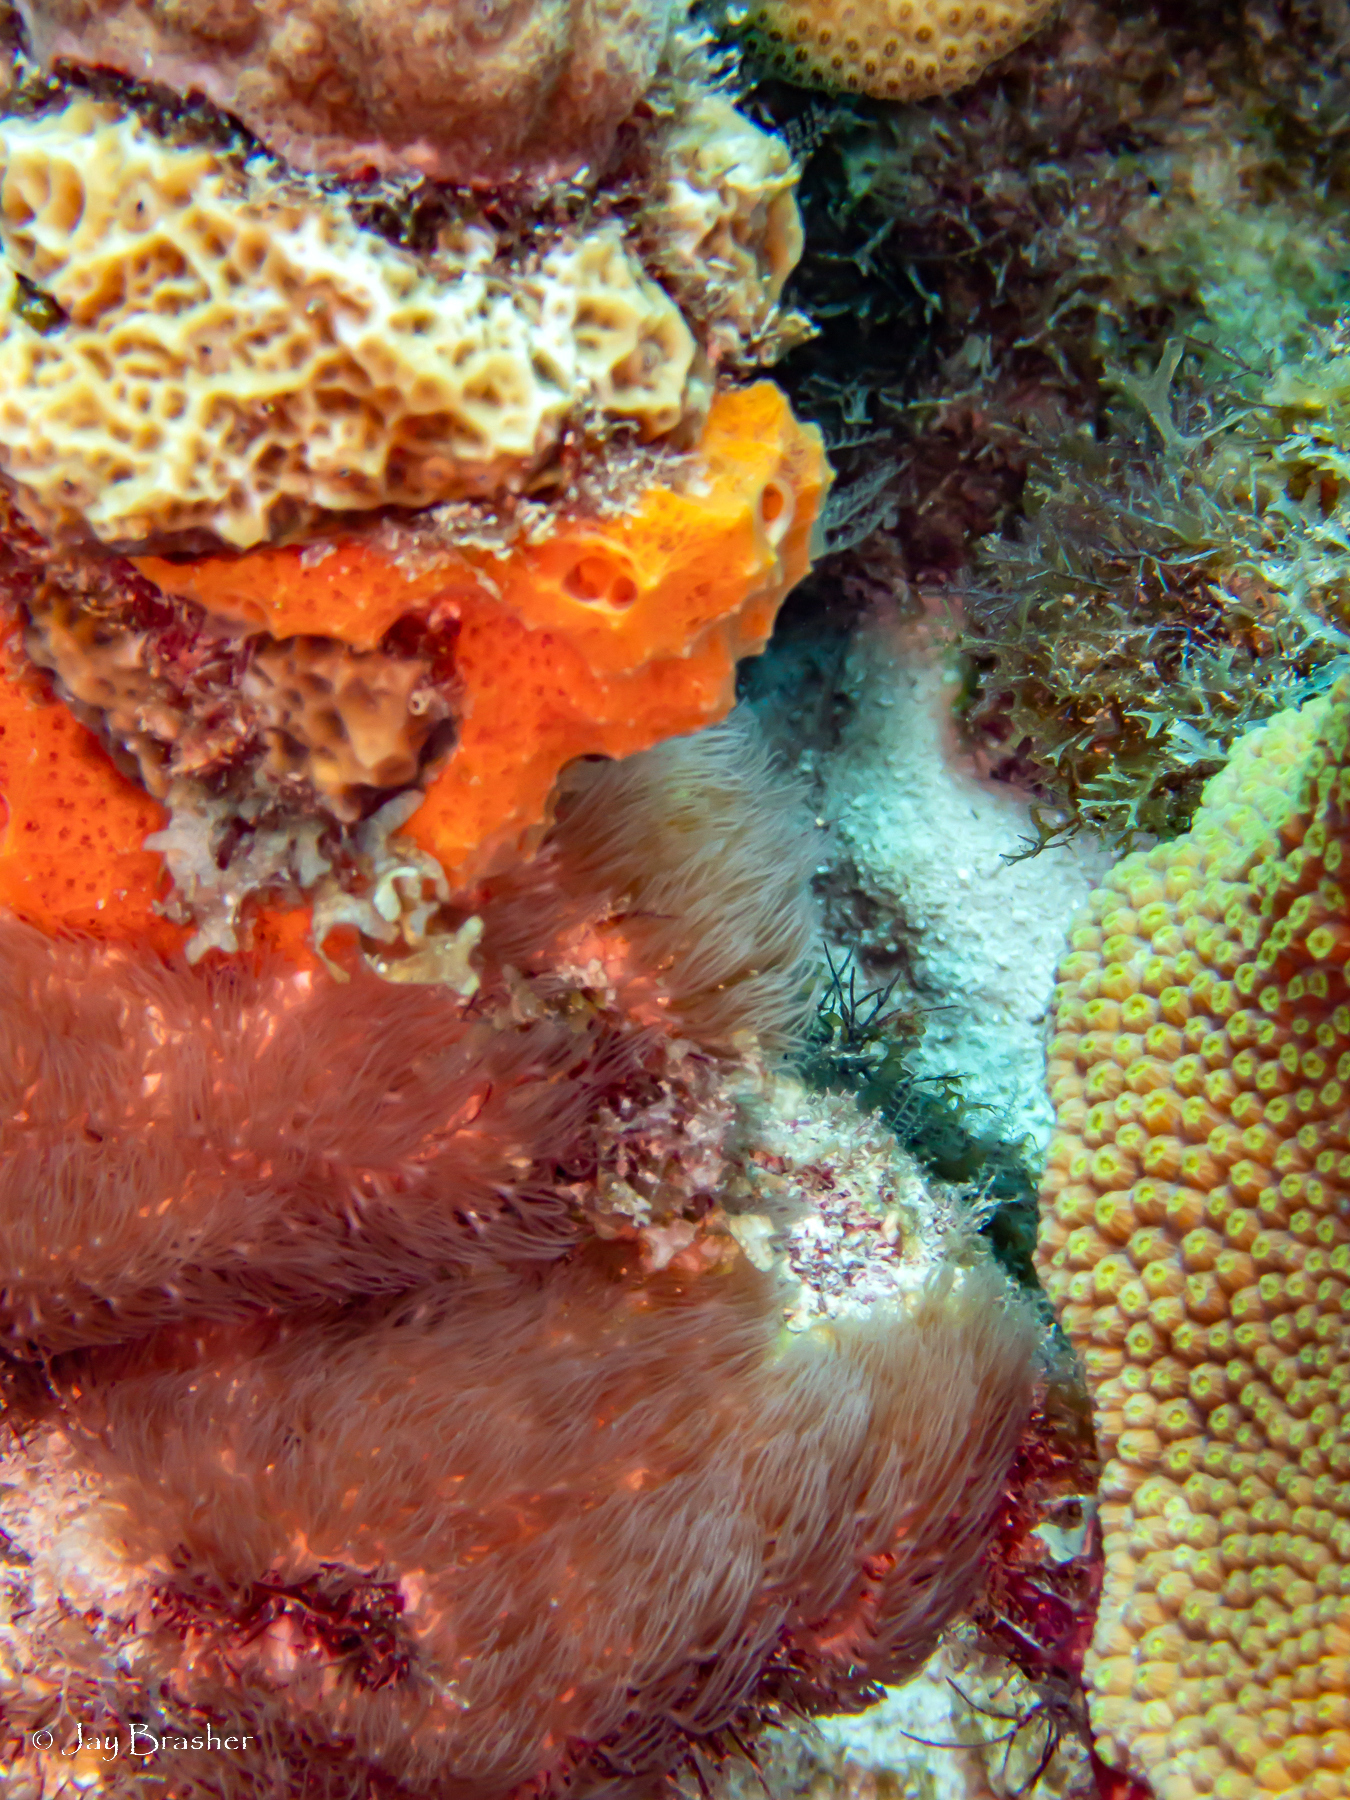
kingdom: Animalia
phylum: Cnidaria
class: Anthozoa
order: Scleralcyonacea
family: Erythropodiidae
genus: Erythropodium
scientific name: Erythropodium caribaeorum
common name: Encrusting gorgonian
